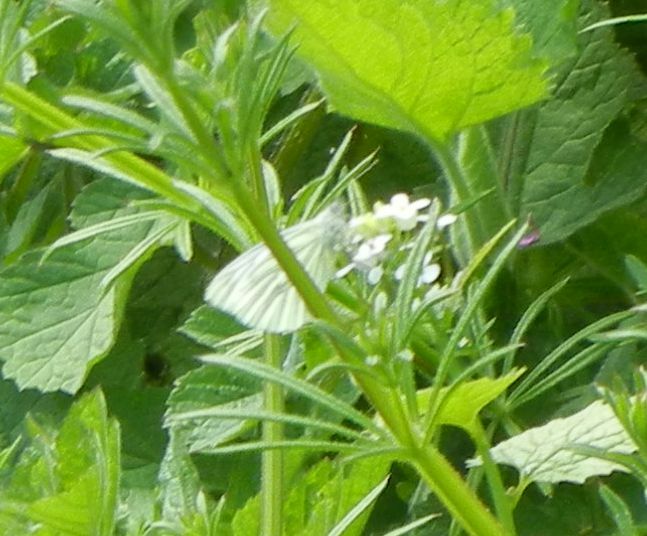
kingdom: Animalia
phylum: Arthropoda
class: Insecta
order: Lepidoptera
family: Pieridae
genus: Pieris
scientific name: Pieris napi
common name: Green-veined white
